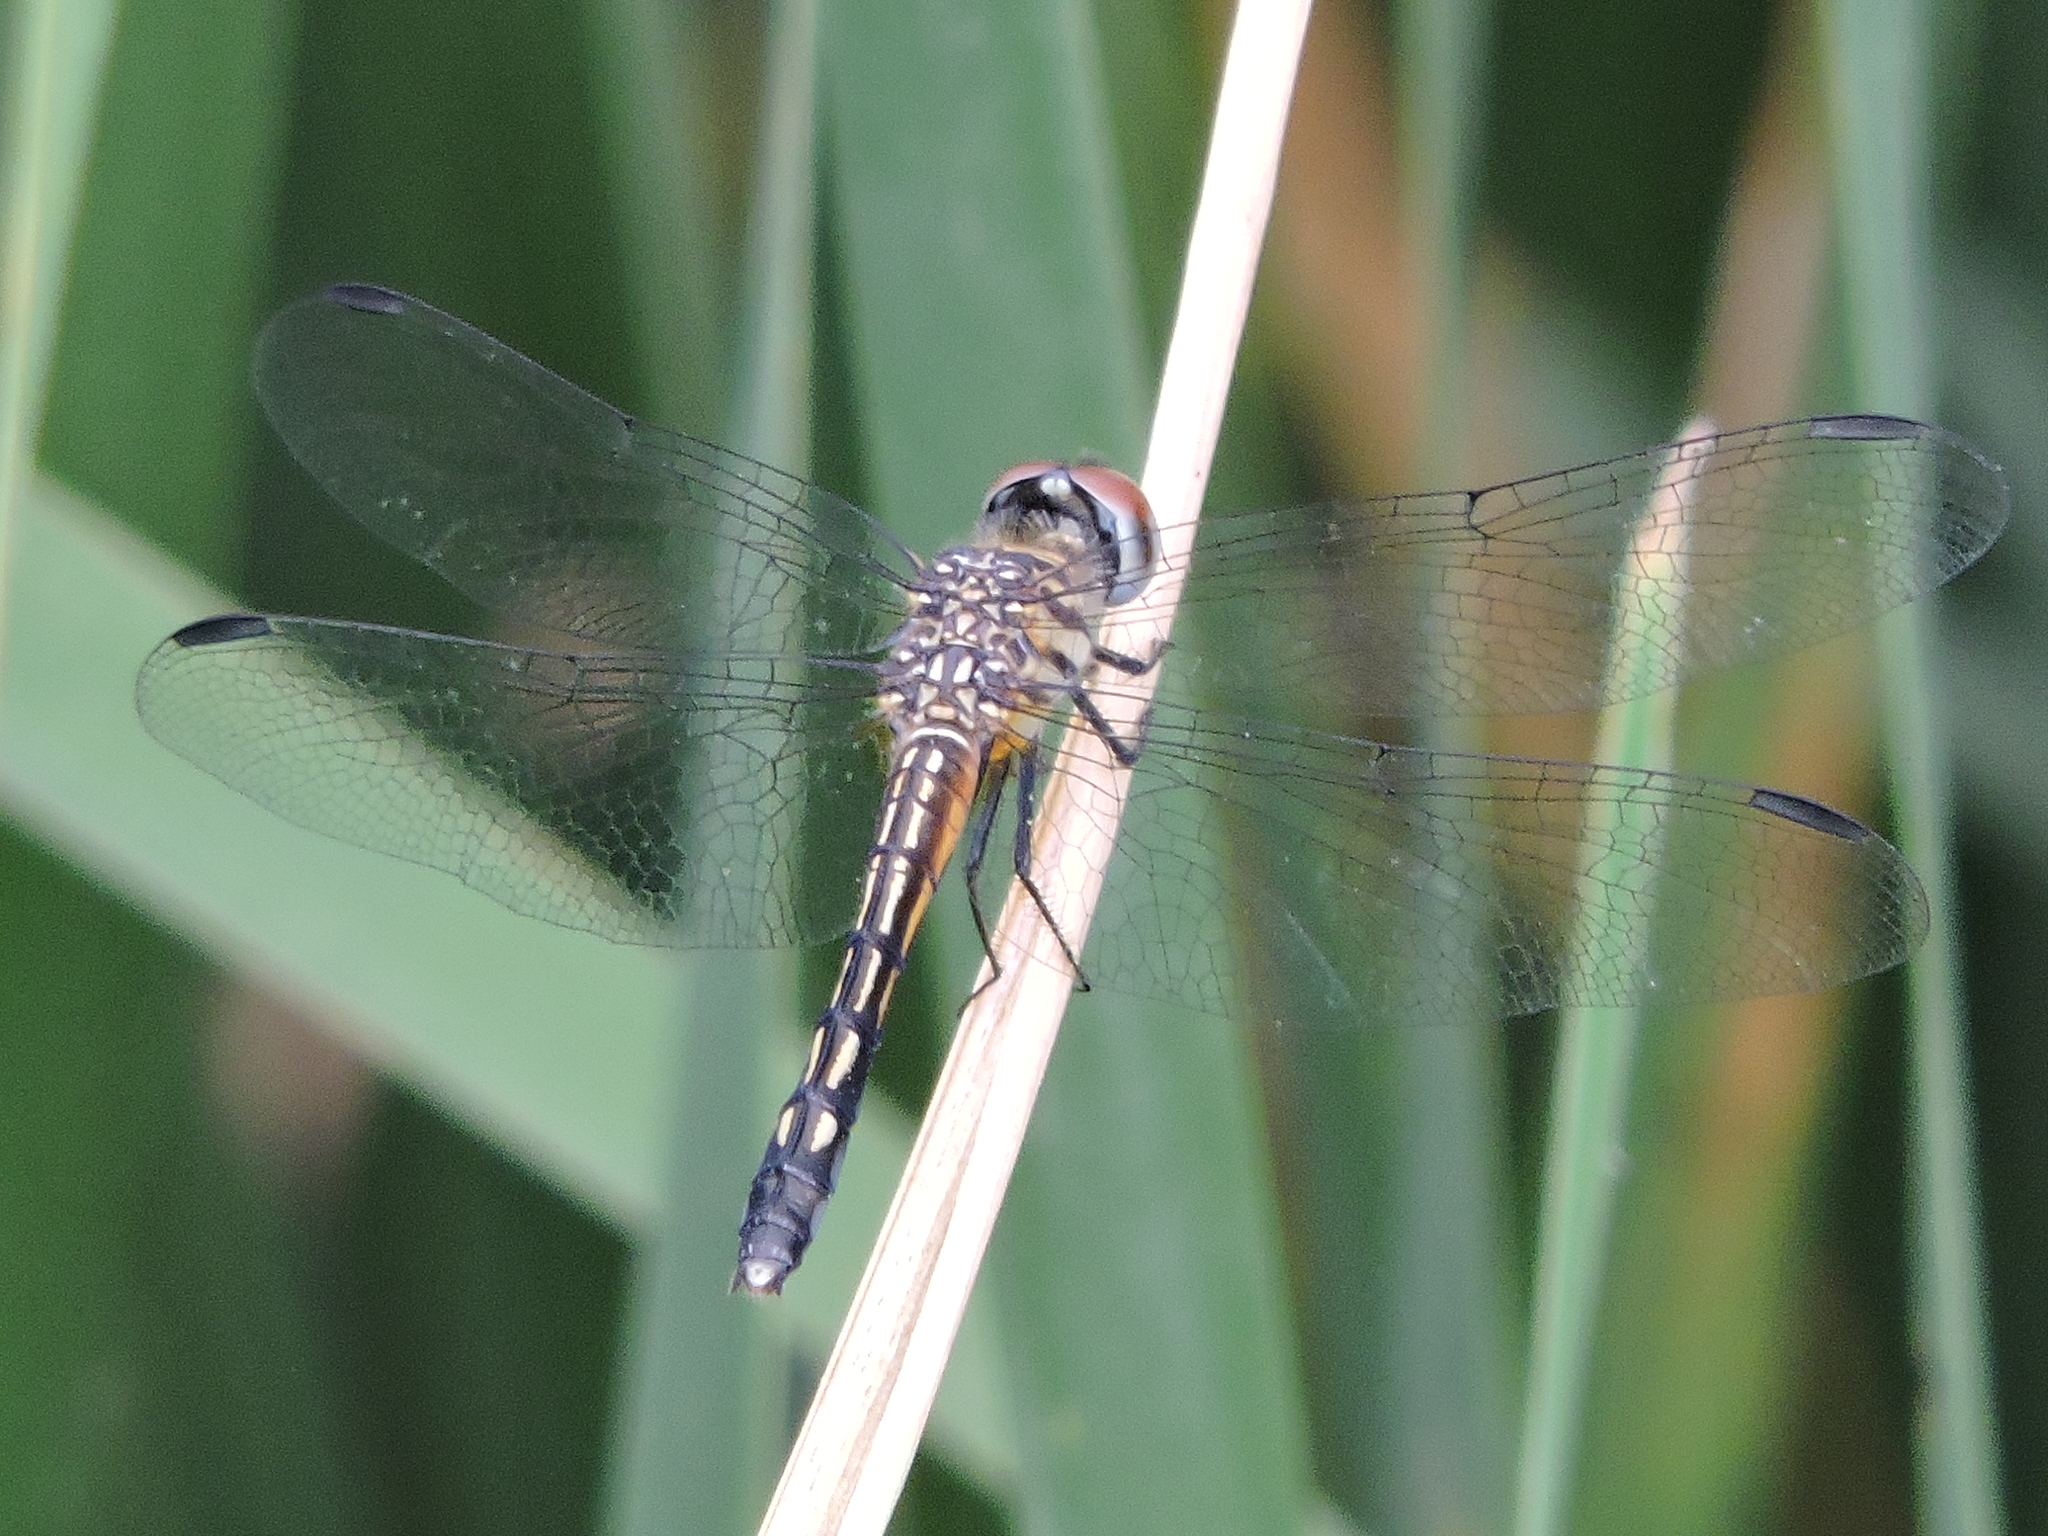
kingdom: Animalia
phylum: Arthropoda
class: Insecta
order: Odonata
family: Libellulidae
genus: Pachydiplax
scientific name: Pachydiplax longipennis
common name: Blue dasher
